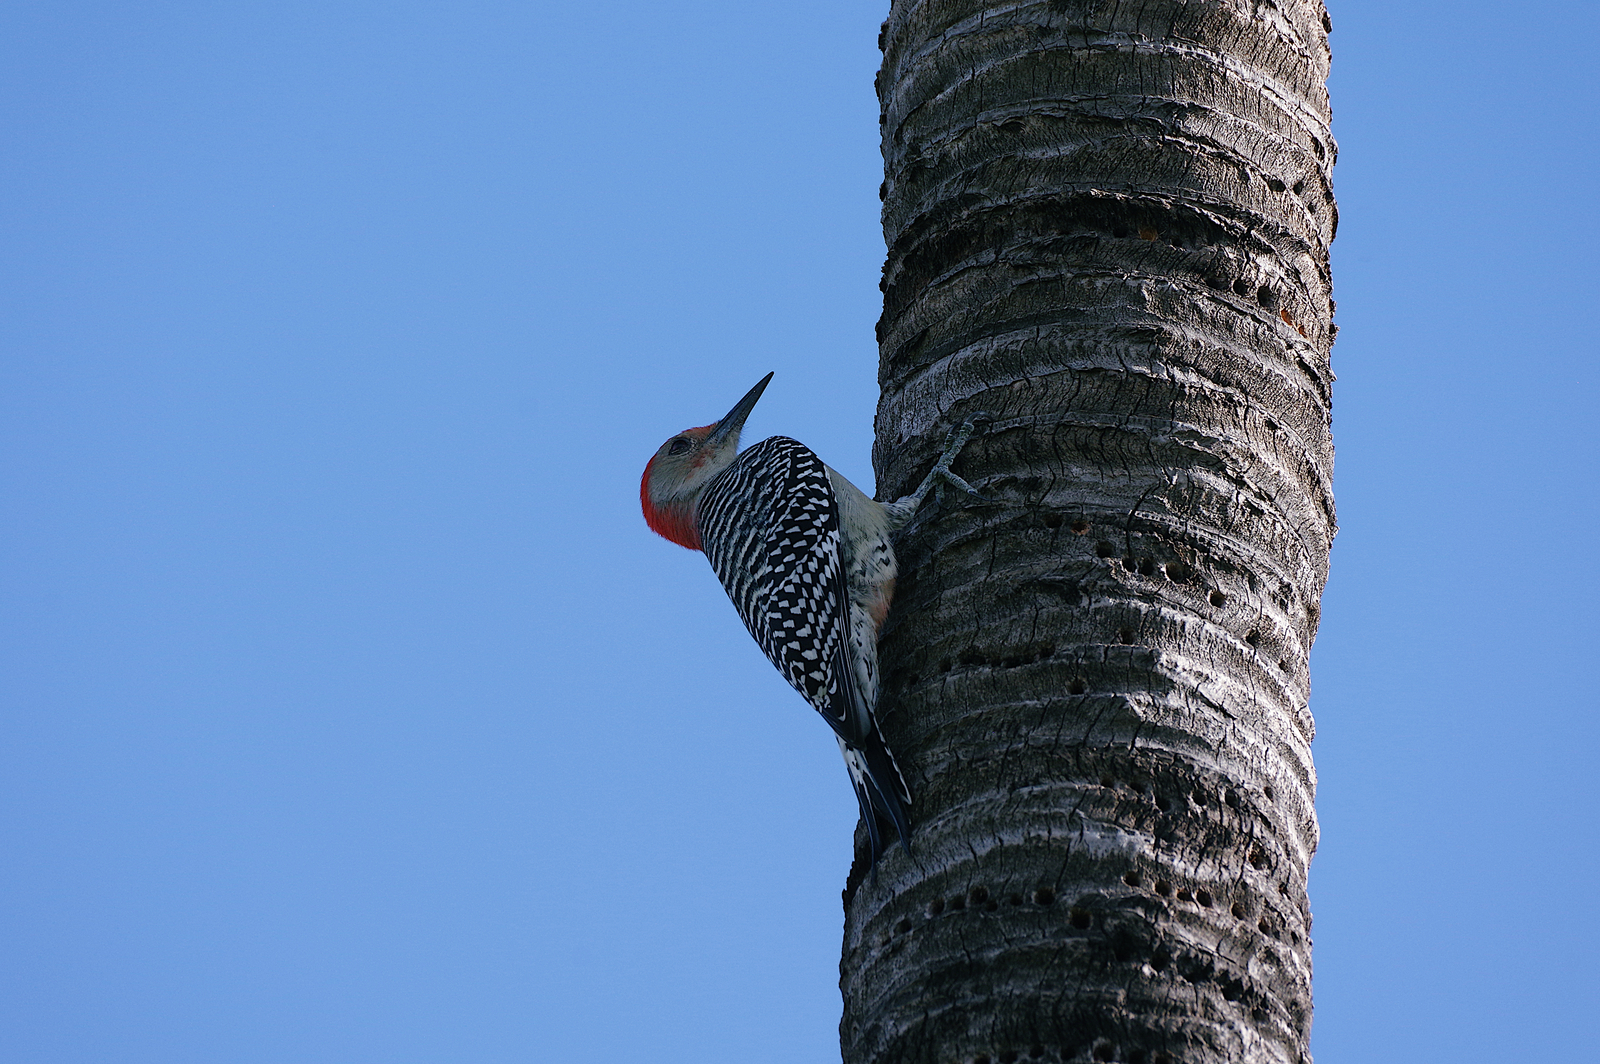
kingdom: Animalia
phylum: Chordata
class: Aves
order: Piciformes
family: Picidae
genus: Melanerpes
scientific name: Melanerpes carolinus
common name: Red-bellied woodpecker
